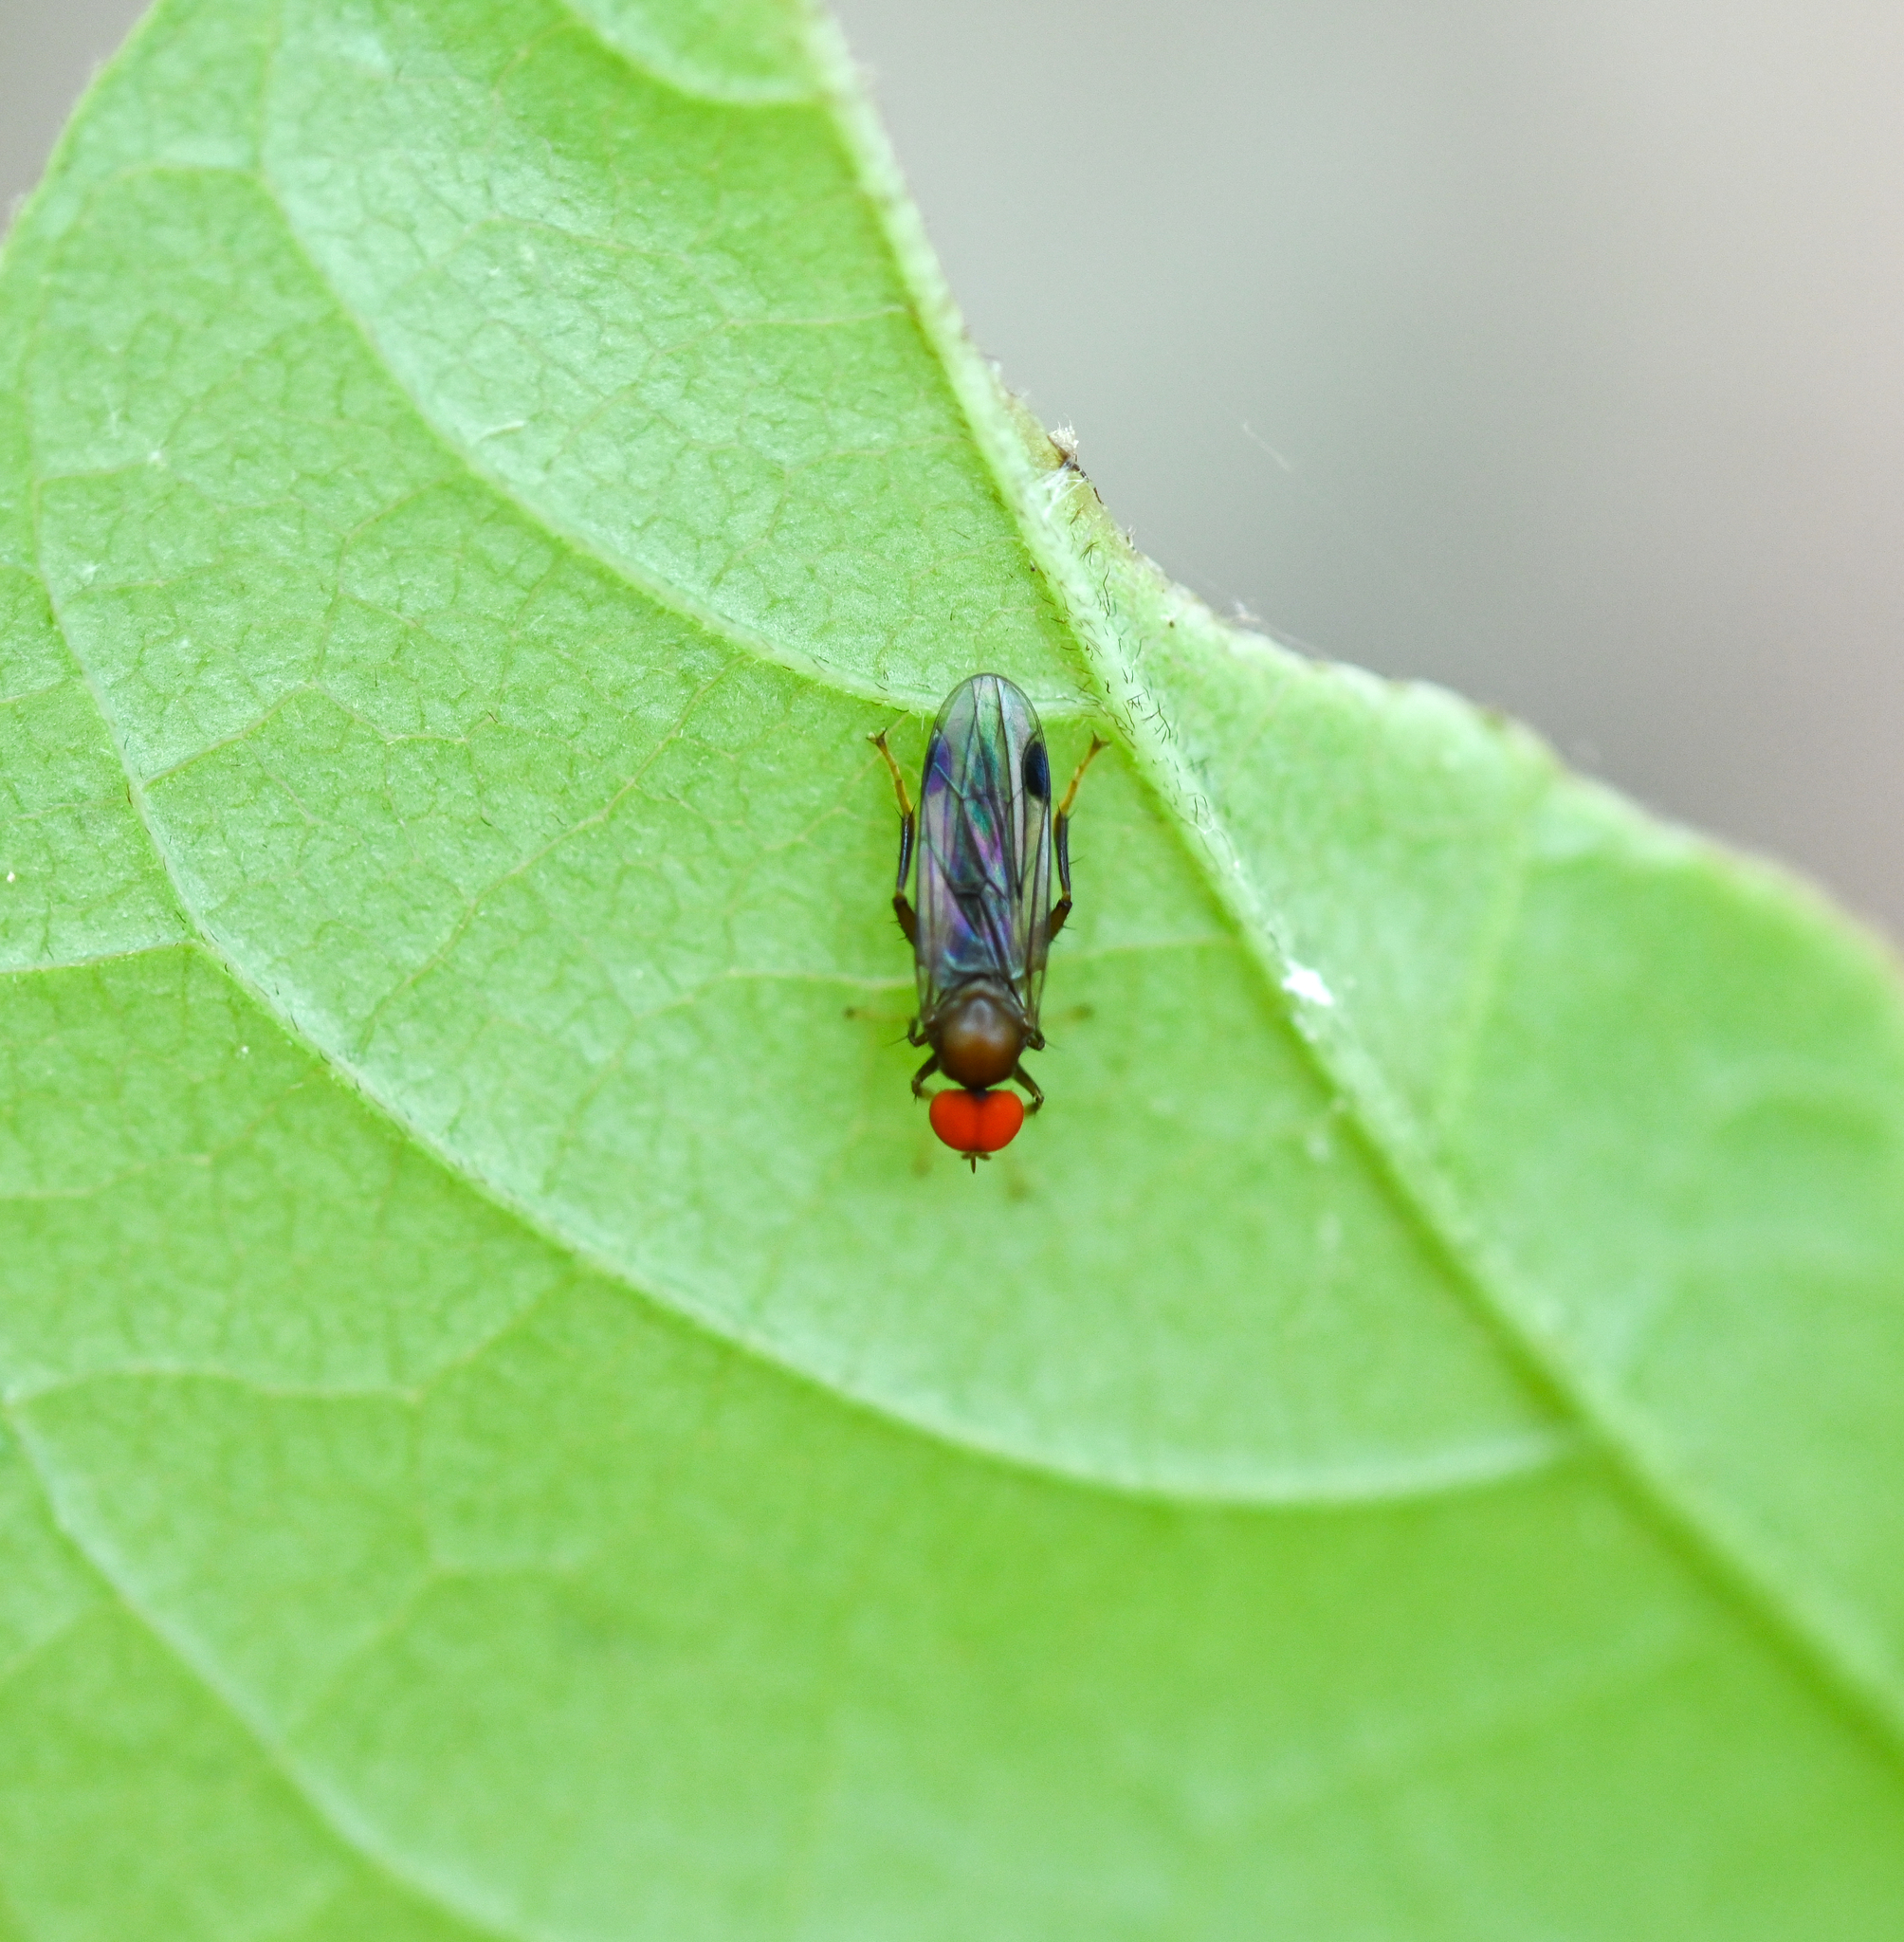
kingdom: Animalia
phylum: Arthropoda
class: Insecta
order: Diptera
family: Hybotidae
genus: Syneches
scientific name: Syneches thoracicus
